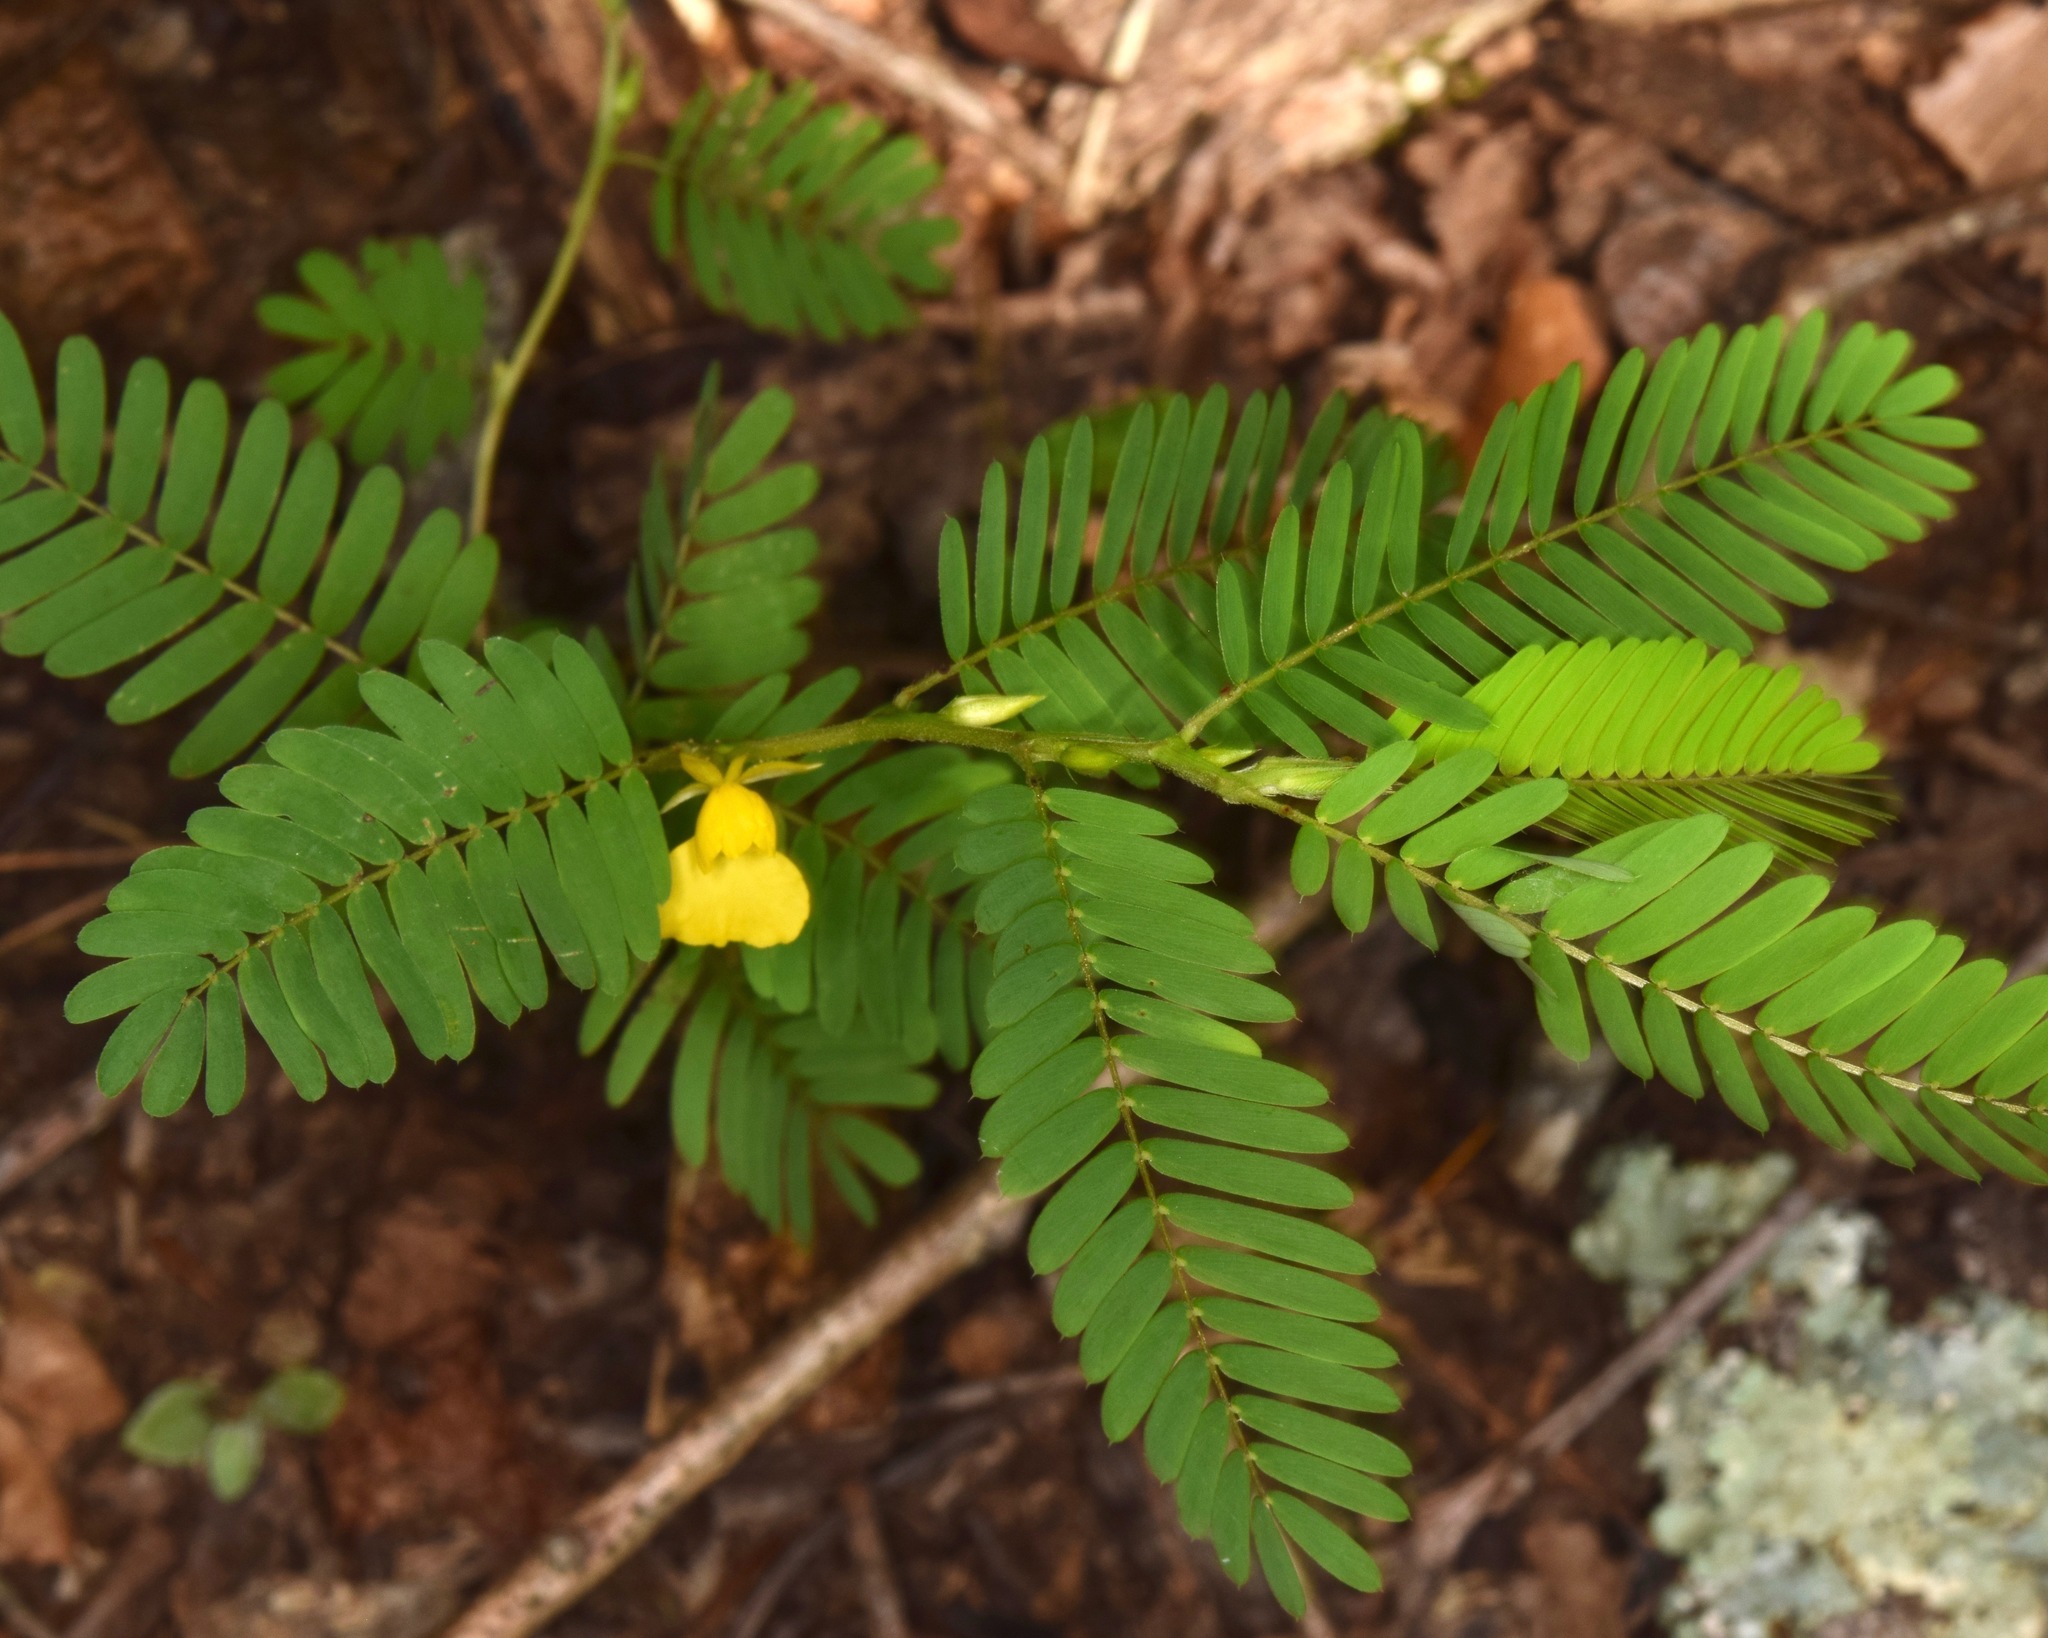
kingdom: Plantae
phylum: Tracheophyta
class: Magnoliopsida
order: Fabales
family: Fabaceae
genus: Chamaecrista
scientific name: Chamaecrista nictitans
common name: Sensitive cassia
